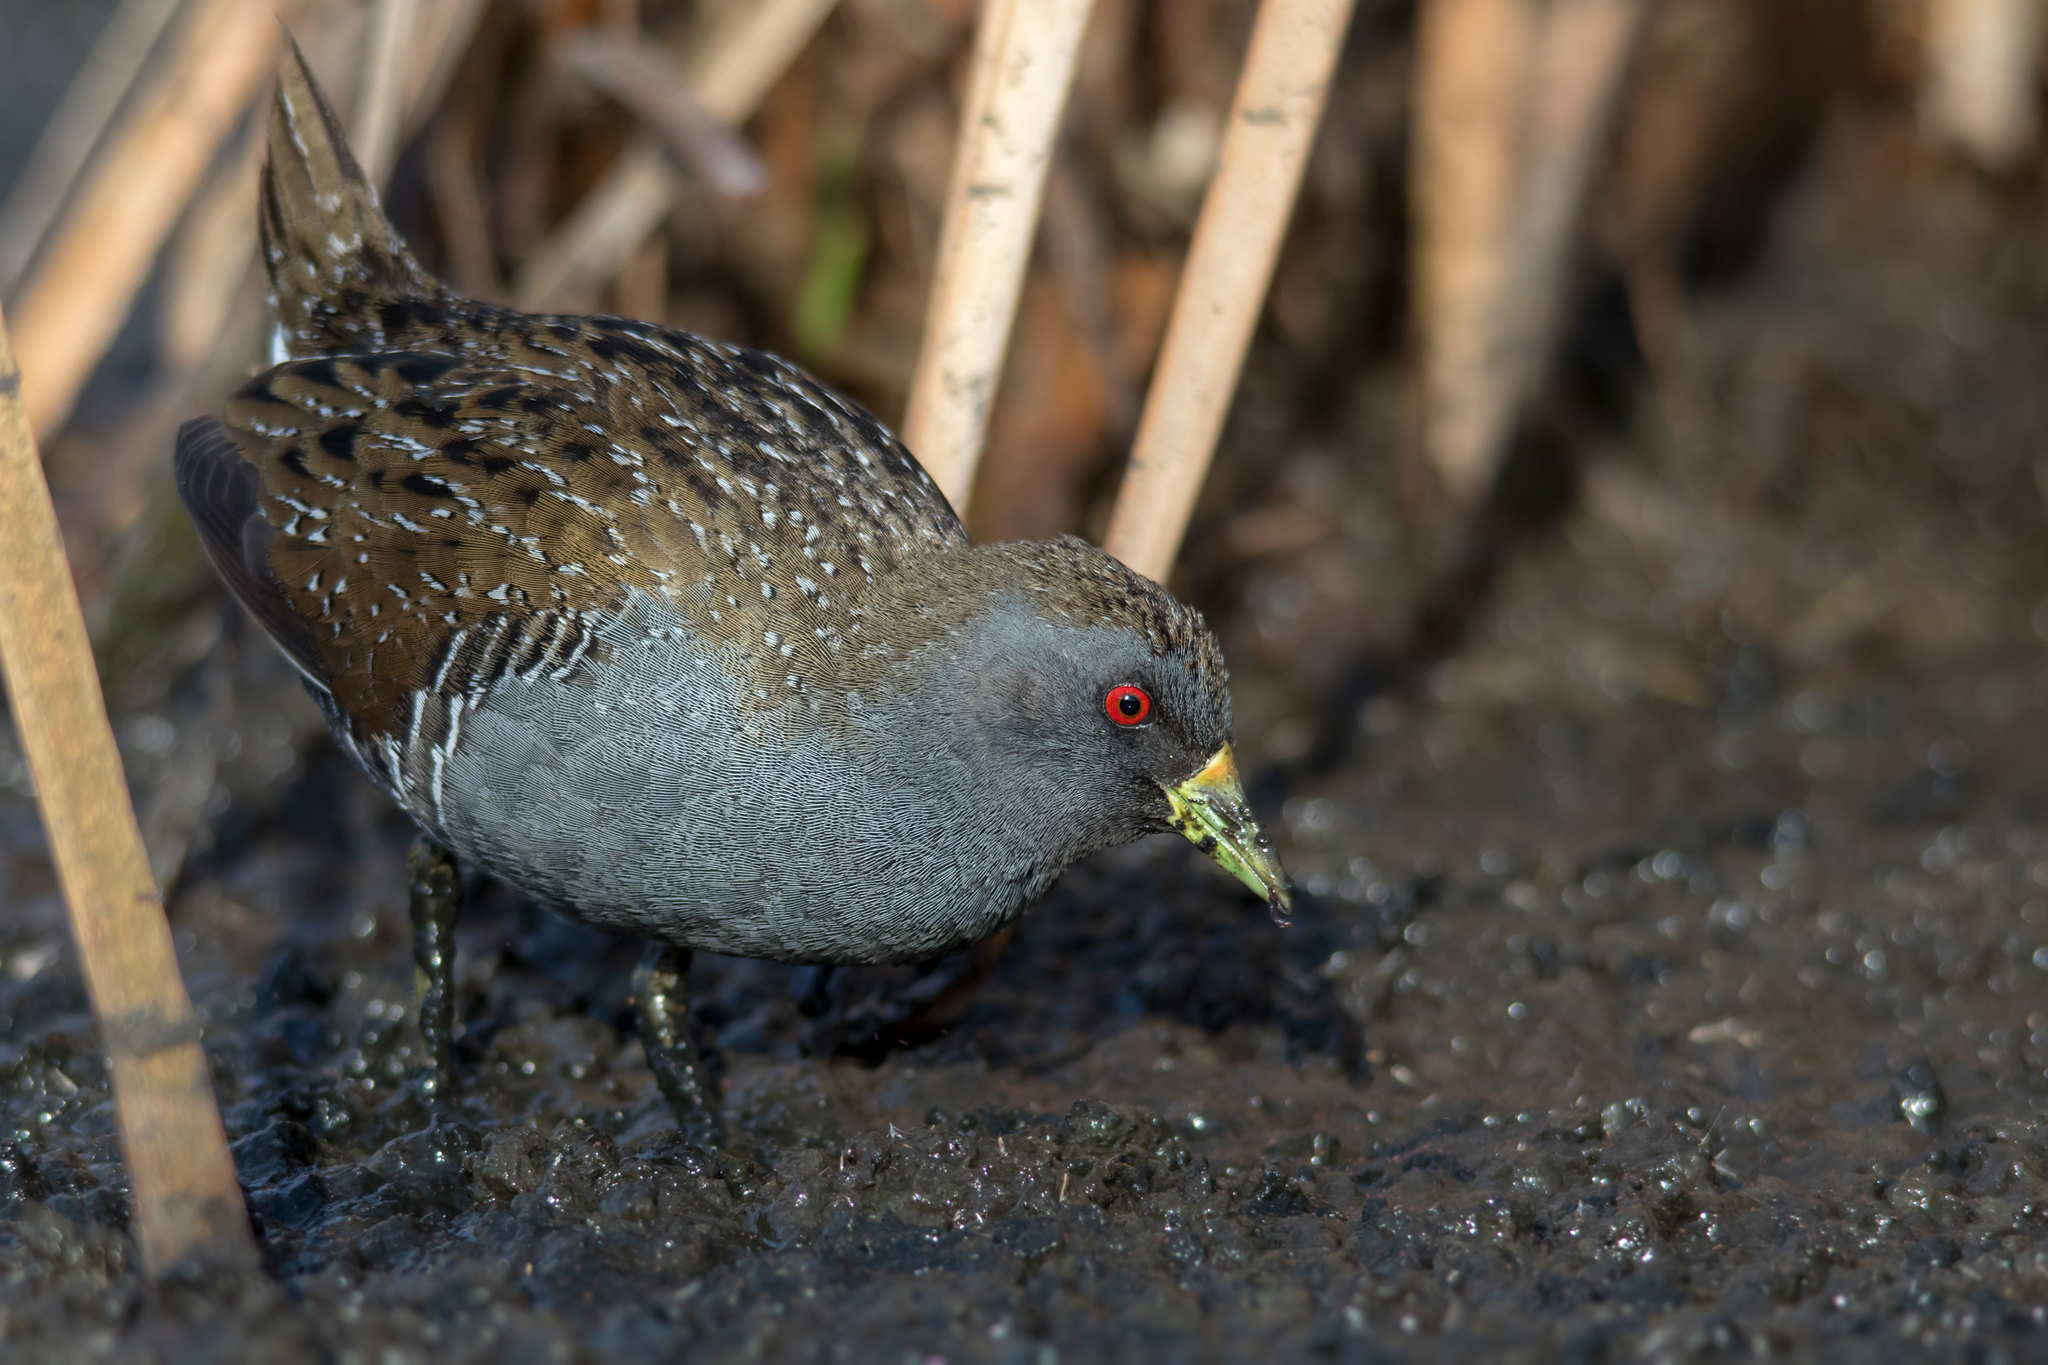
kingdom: Animalia
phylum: Chordata
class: Aves
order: Gruiformes
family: Rallidae
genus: Porzana
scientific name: Porzana fluminea
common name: Australian crake
